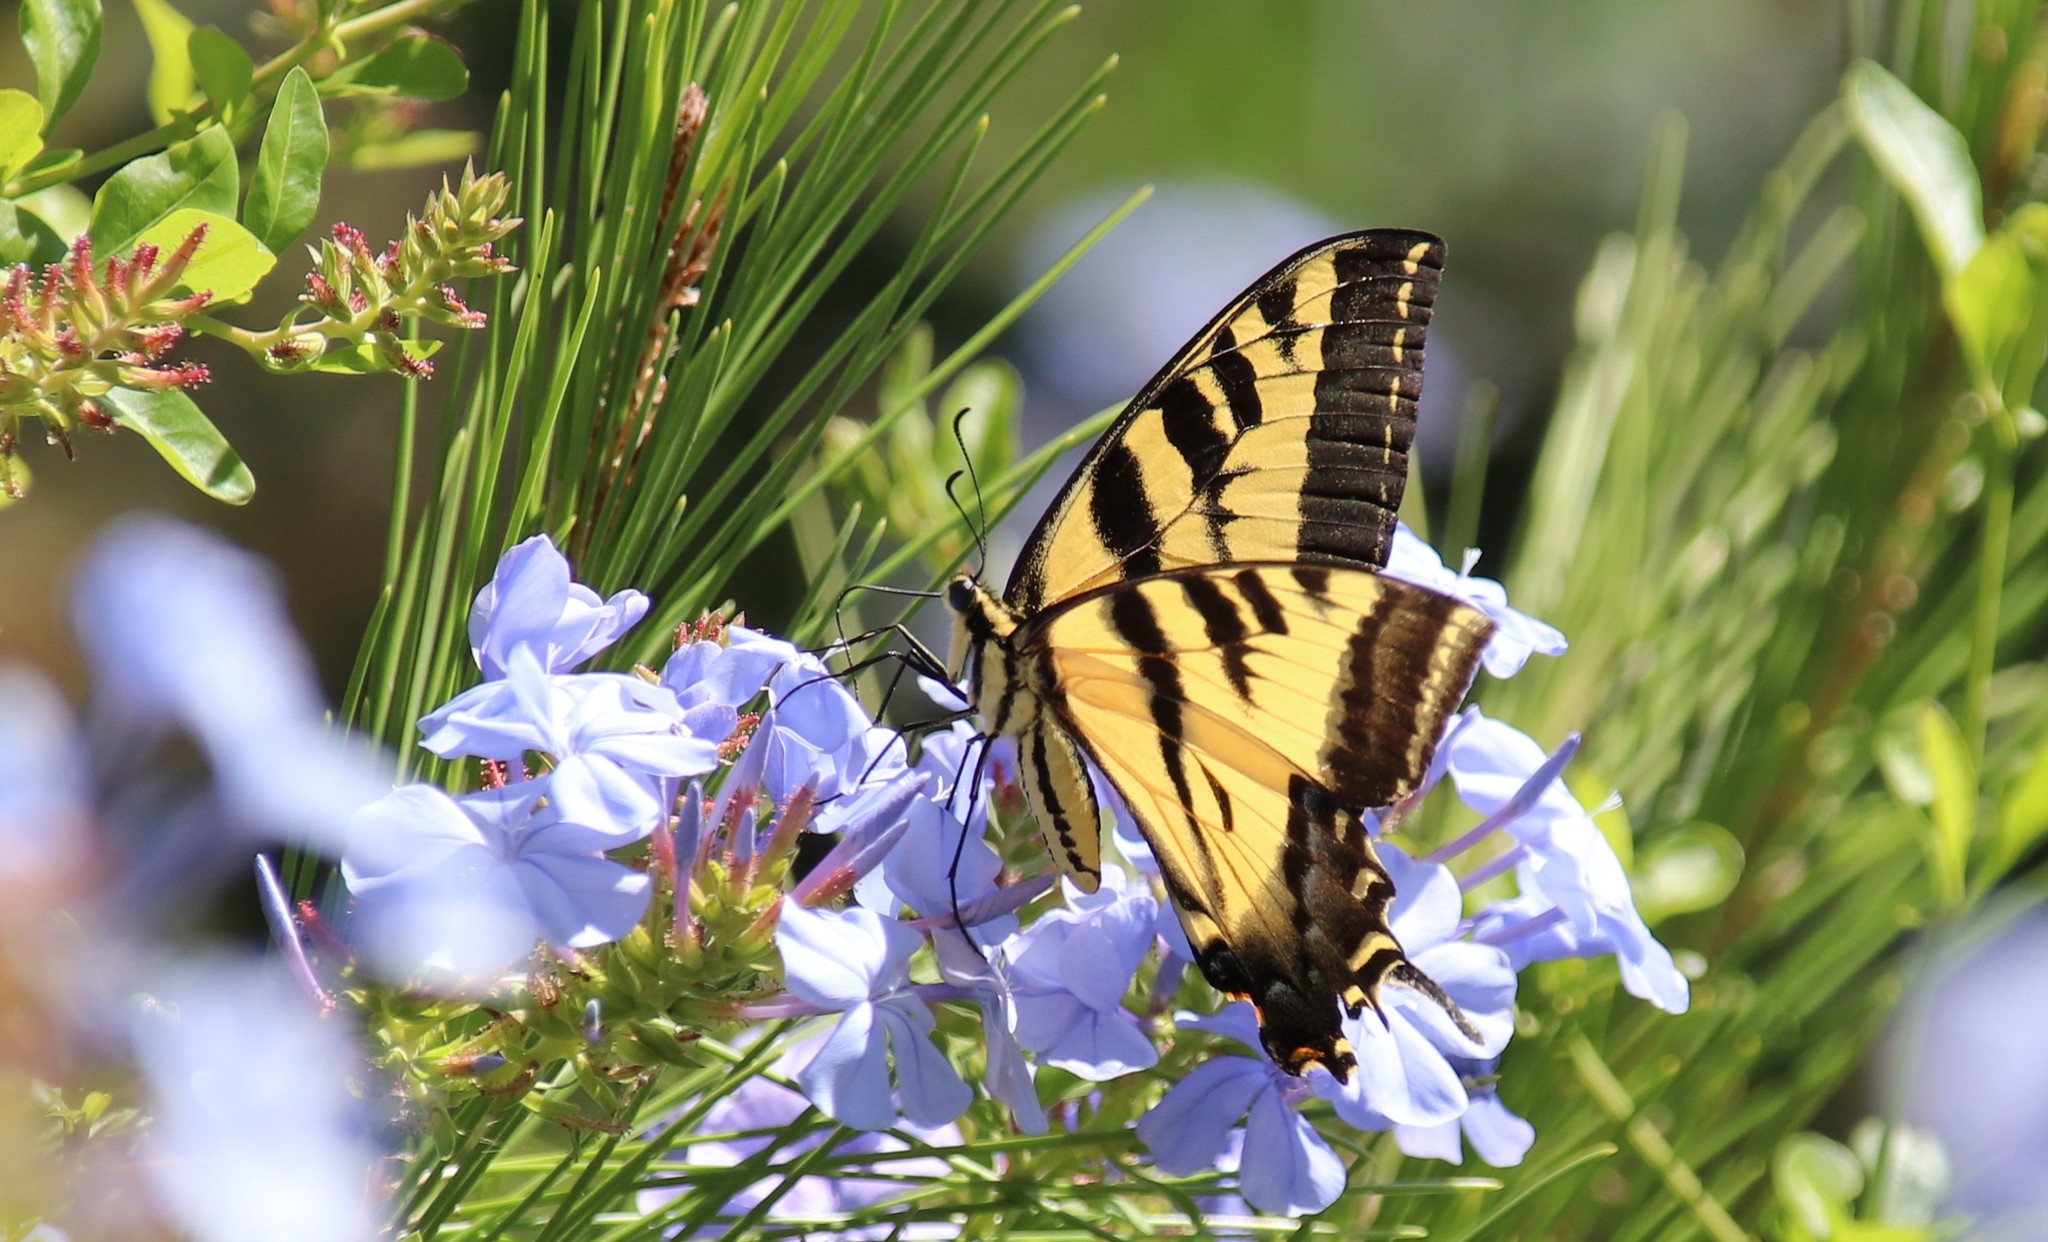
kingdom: Animalia
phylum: Arthropoda
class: Insecta
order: Lepidoptera
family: Papilionidae
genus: Papilio
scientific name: Papilio rutulus
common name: Western tiger swallowtail
